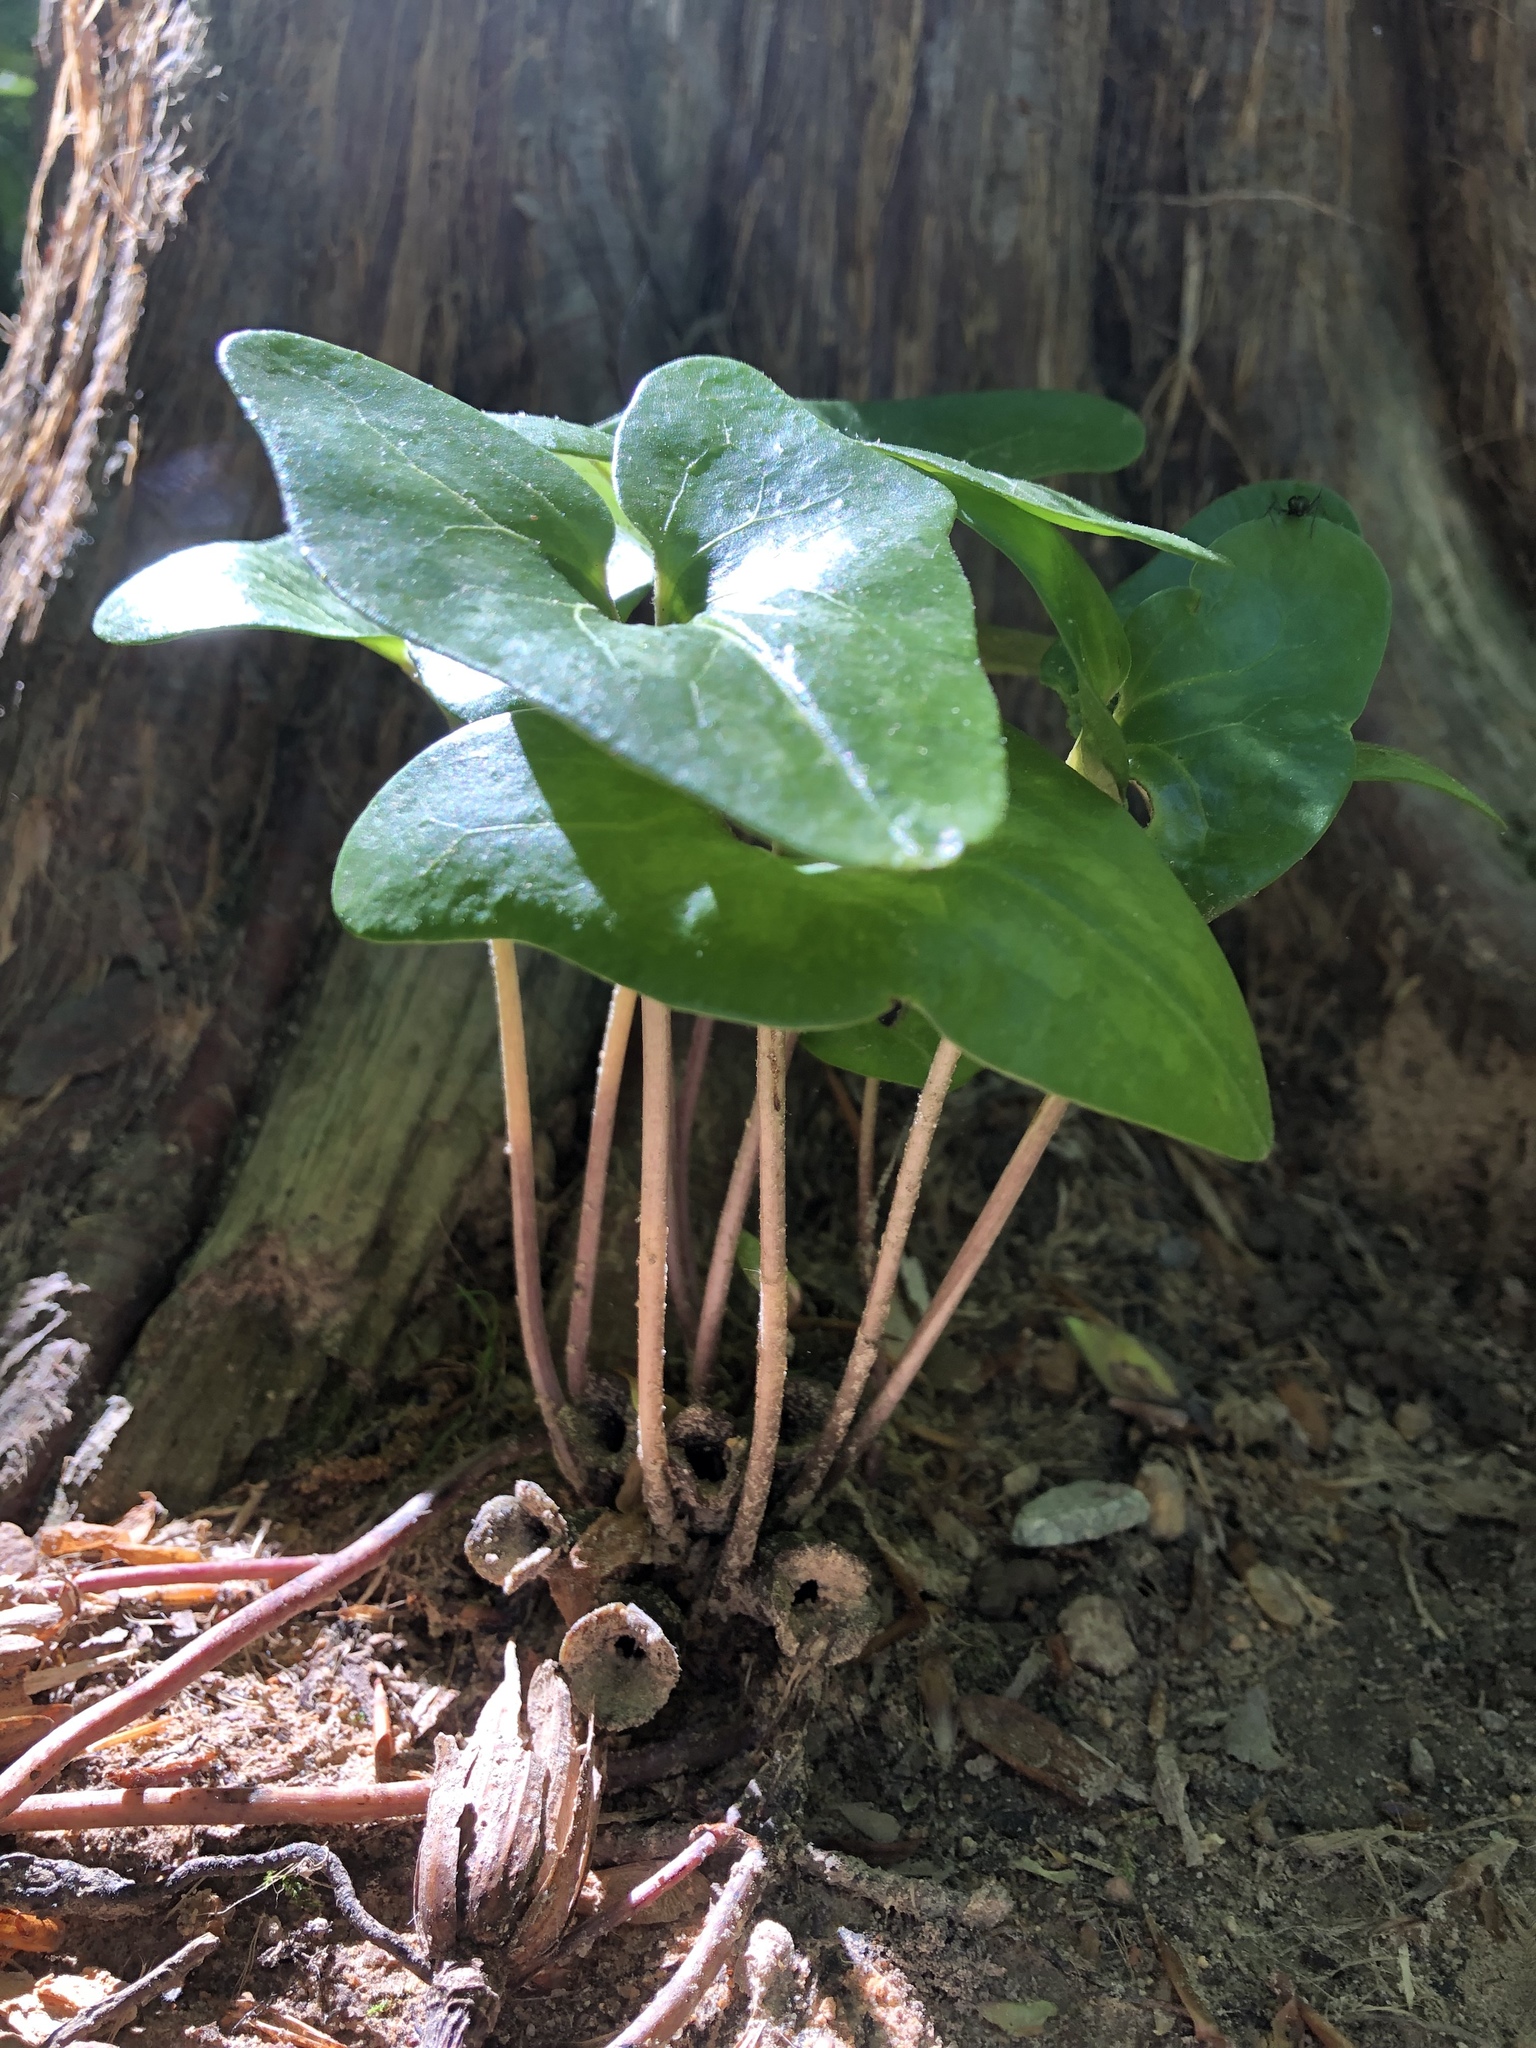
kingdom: Plantae
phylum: Tracheophyta
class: Magnoliopsida
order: Piperales
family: Aristolochiaceae
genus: Hexastylis
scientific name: Hexastylis arifolia
